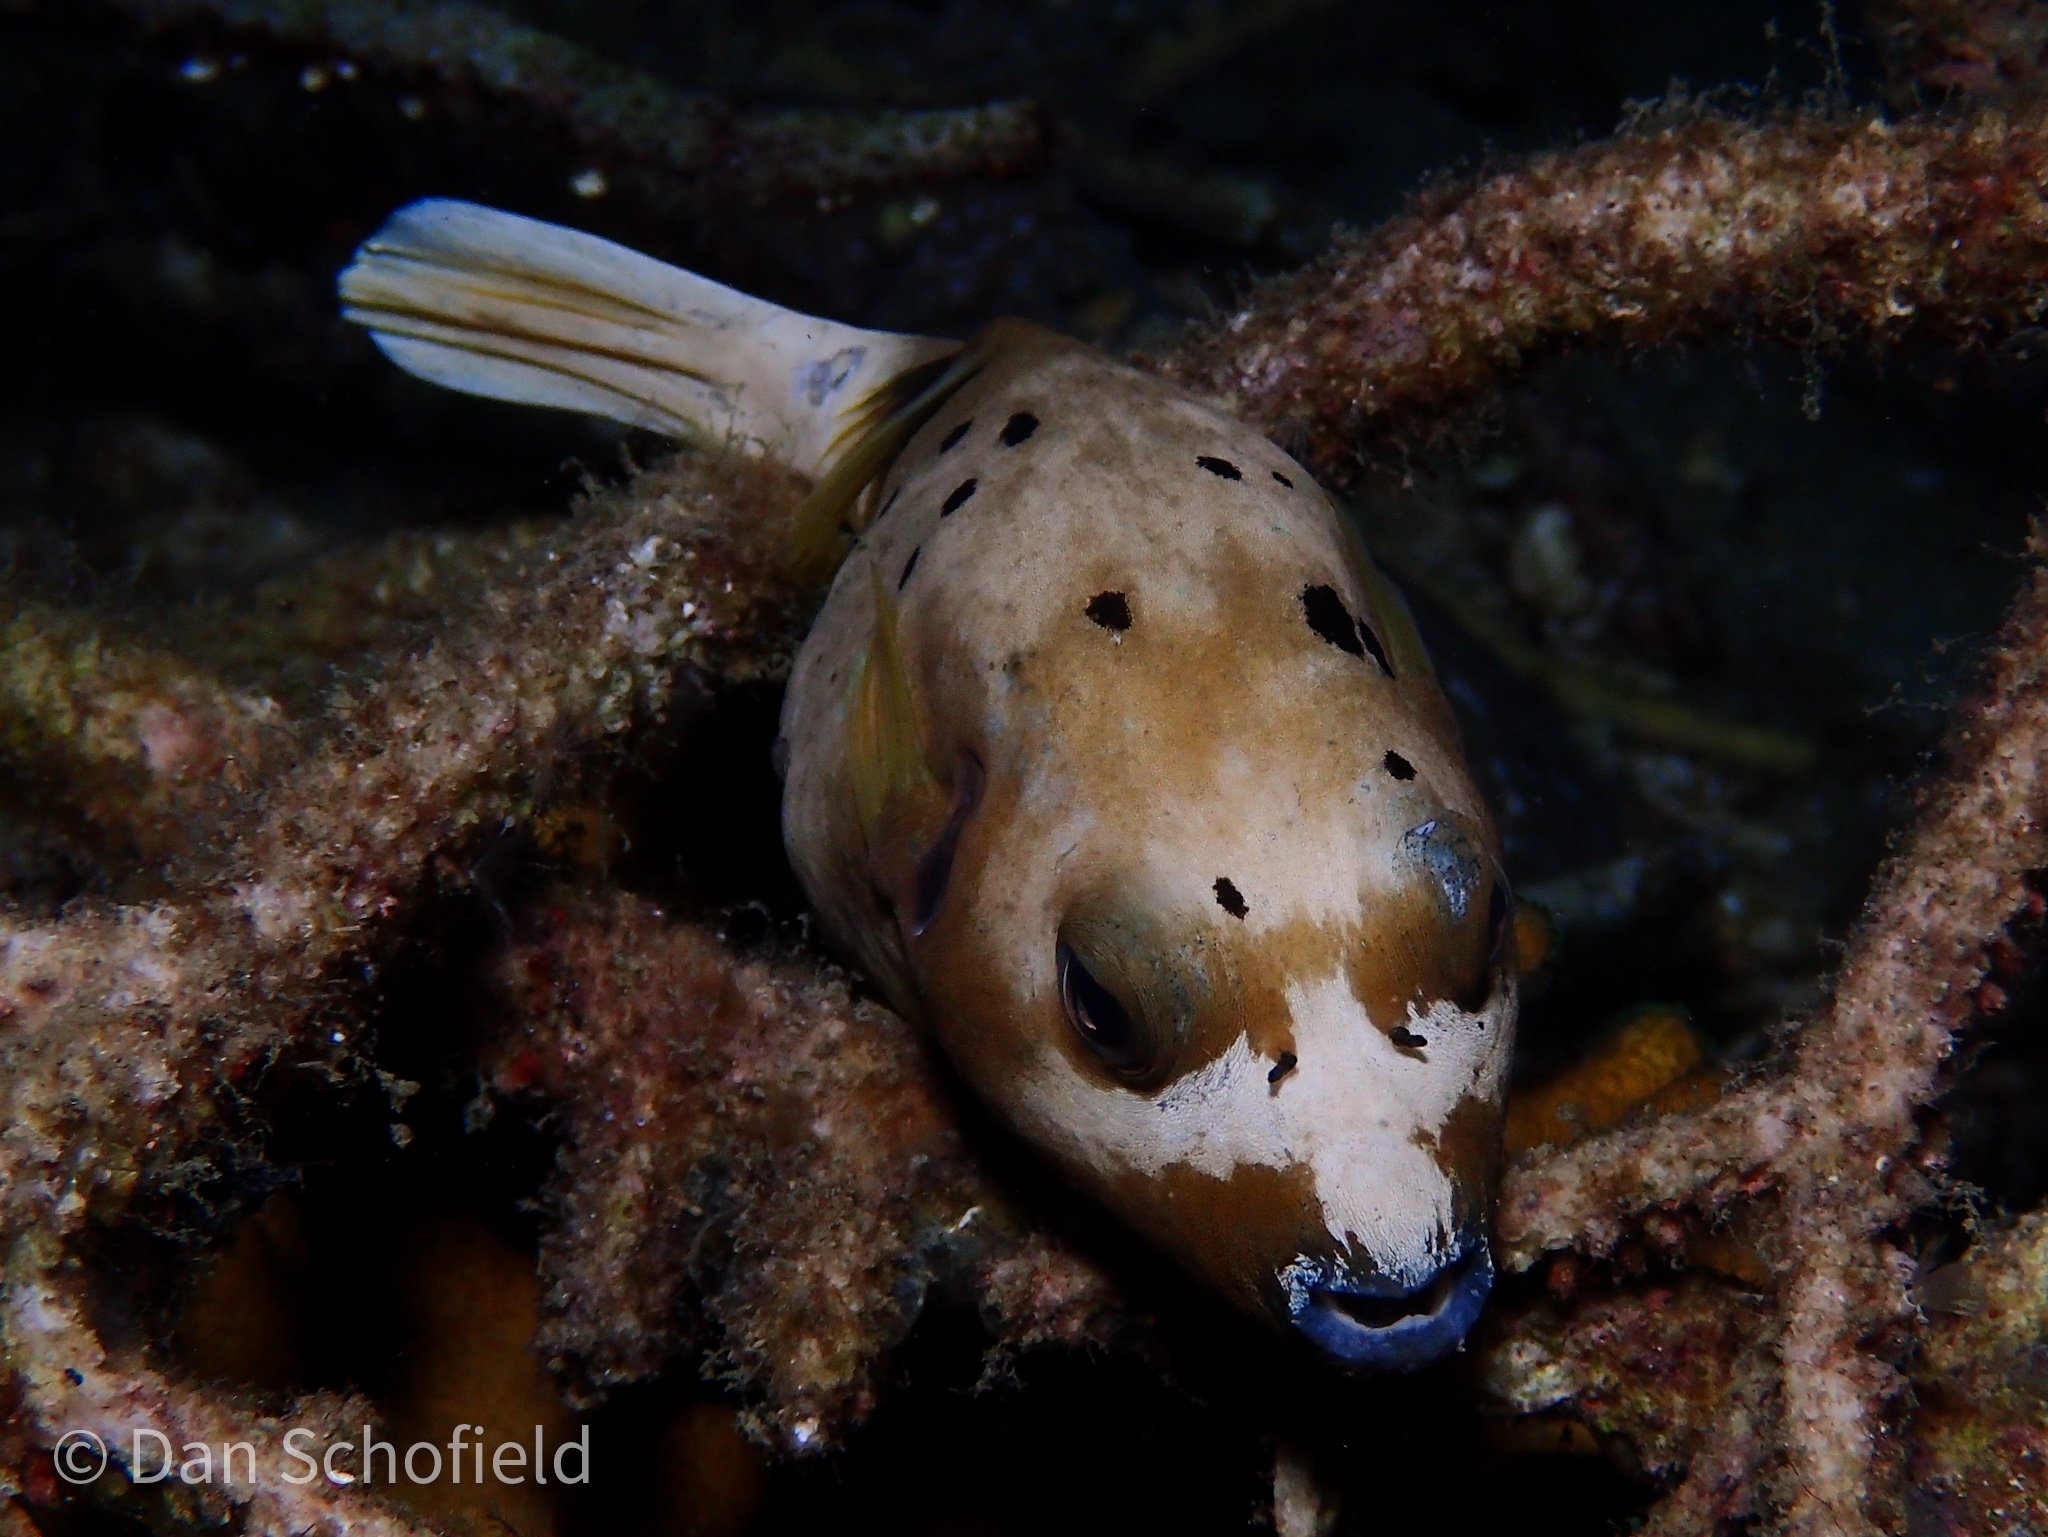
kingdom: Animalia
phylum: Chordata
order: Tetraodontiformes
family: Tetraodontidae
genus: Arothron
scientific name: Arothron nigropunctatus
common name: Black spotted blow fish
